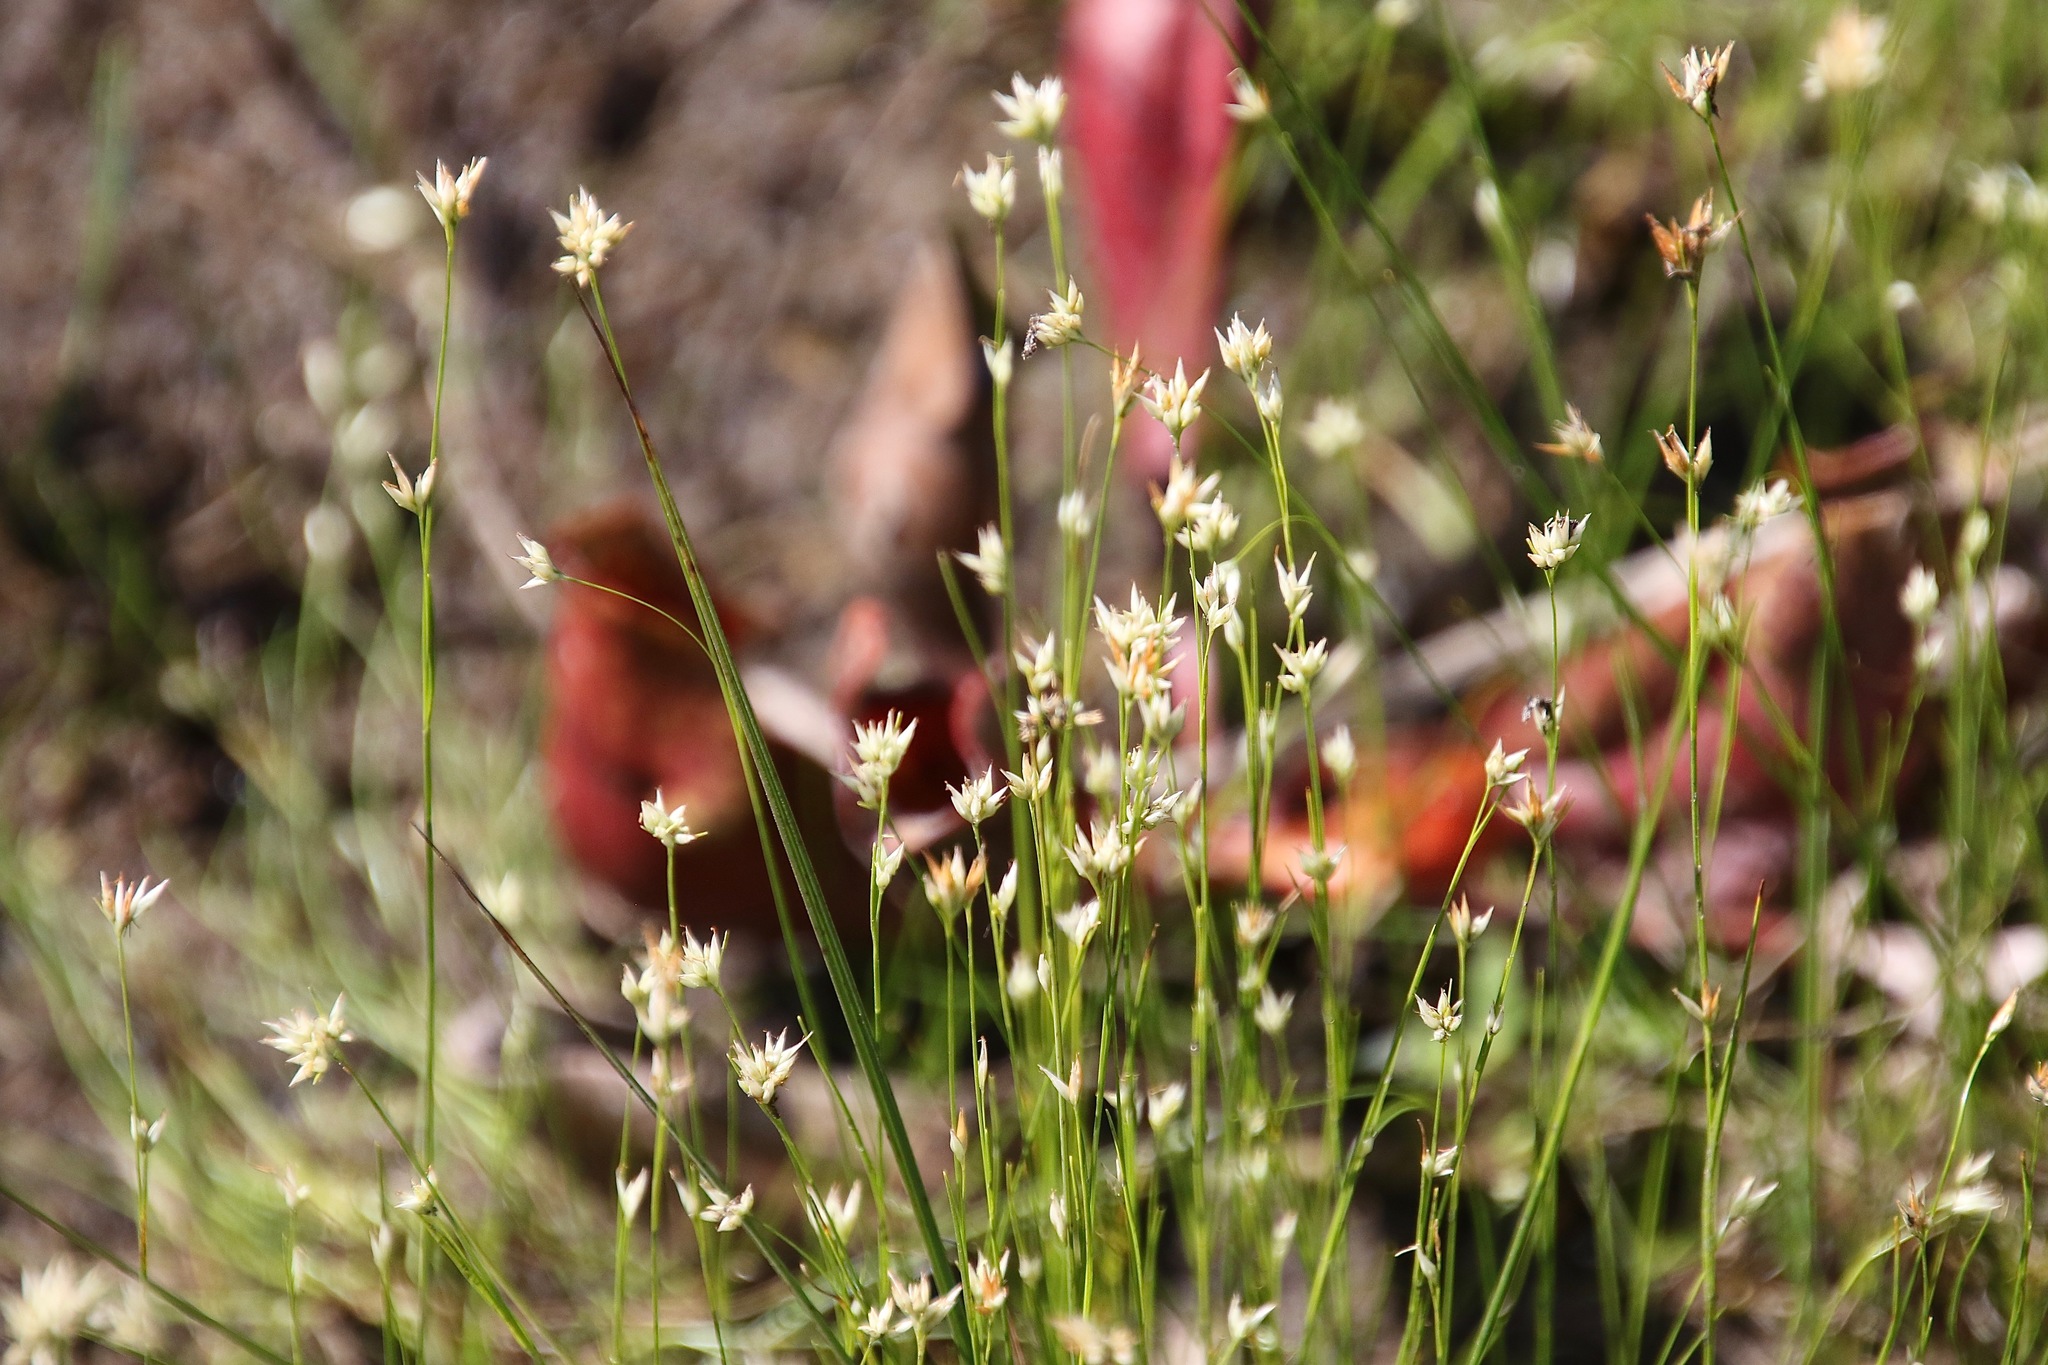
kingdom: Plantae
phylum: Tracheophyta
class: Liliopsida
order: Poales
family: Cyperaceae
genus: Rhynchospora
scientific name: Rhynchospora alba
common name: White beak-sedge
